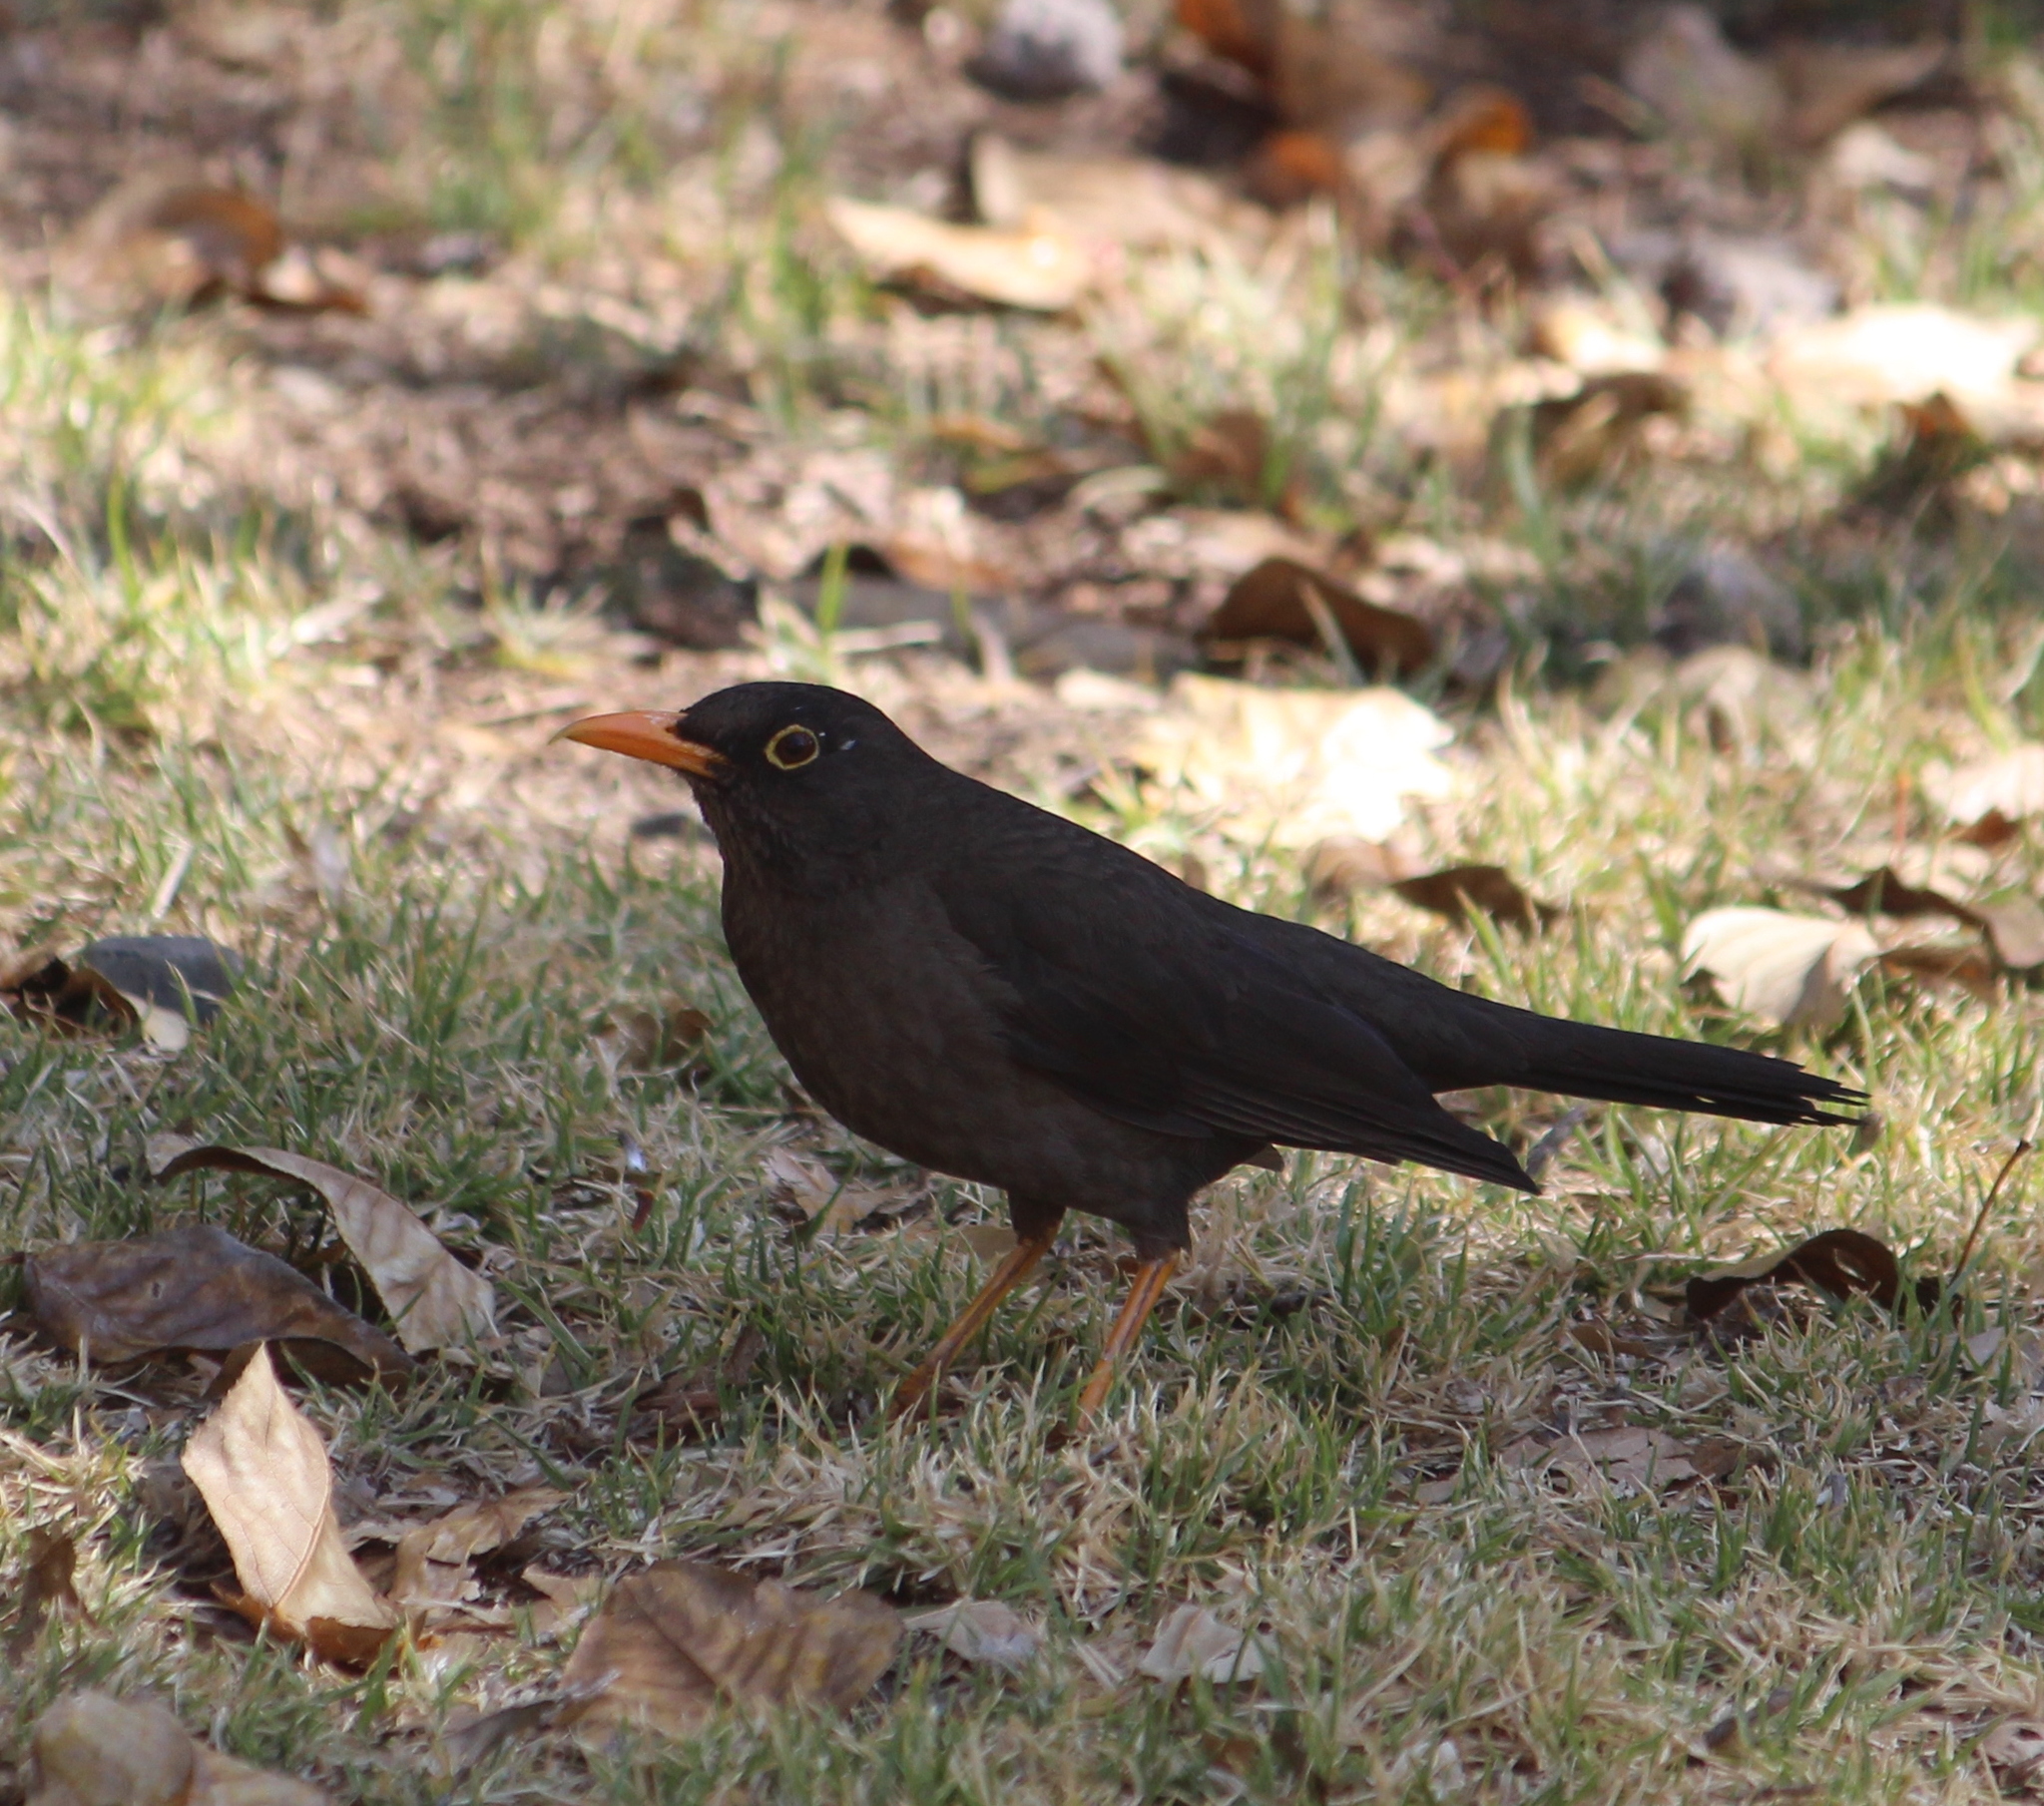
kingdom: Animalia
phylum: Chordata
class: Aves
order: Passeriformes
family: Turdidae
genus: Turdus
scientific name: Turdus chiguanco
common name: Chiguanco thrush
